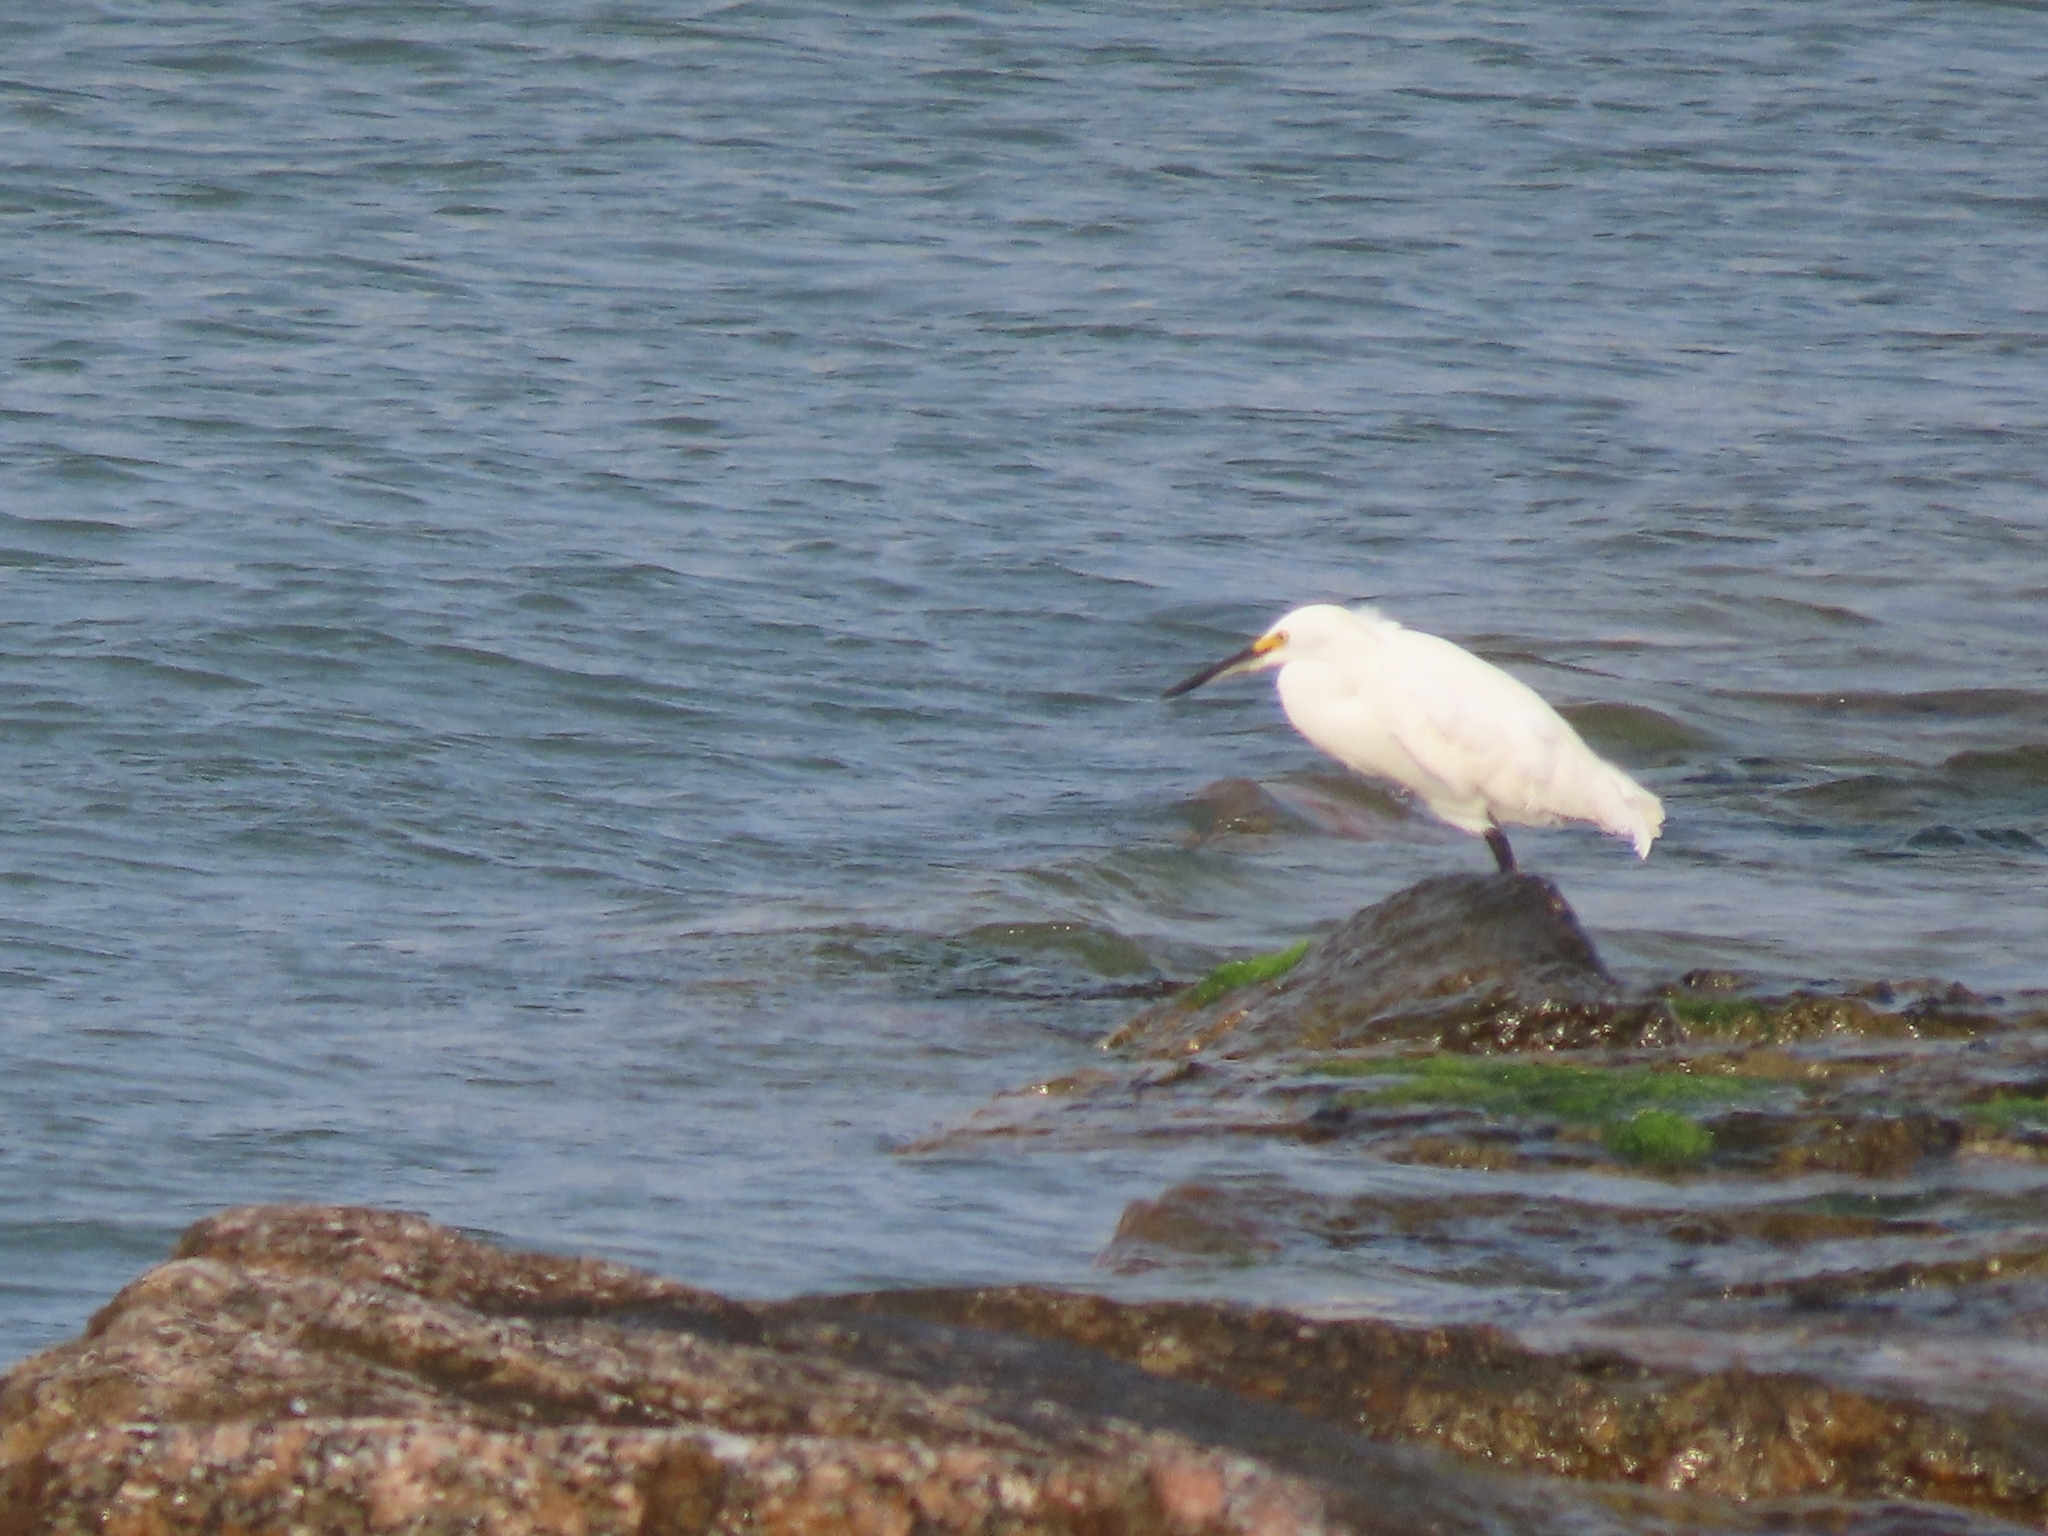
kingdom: Animalia
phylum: Chordata
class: Aves
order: Pelecaniformes
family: Ardeidae
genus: Egretta
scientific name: Egretta thula
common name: Snowy egret
